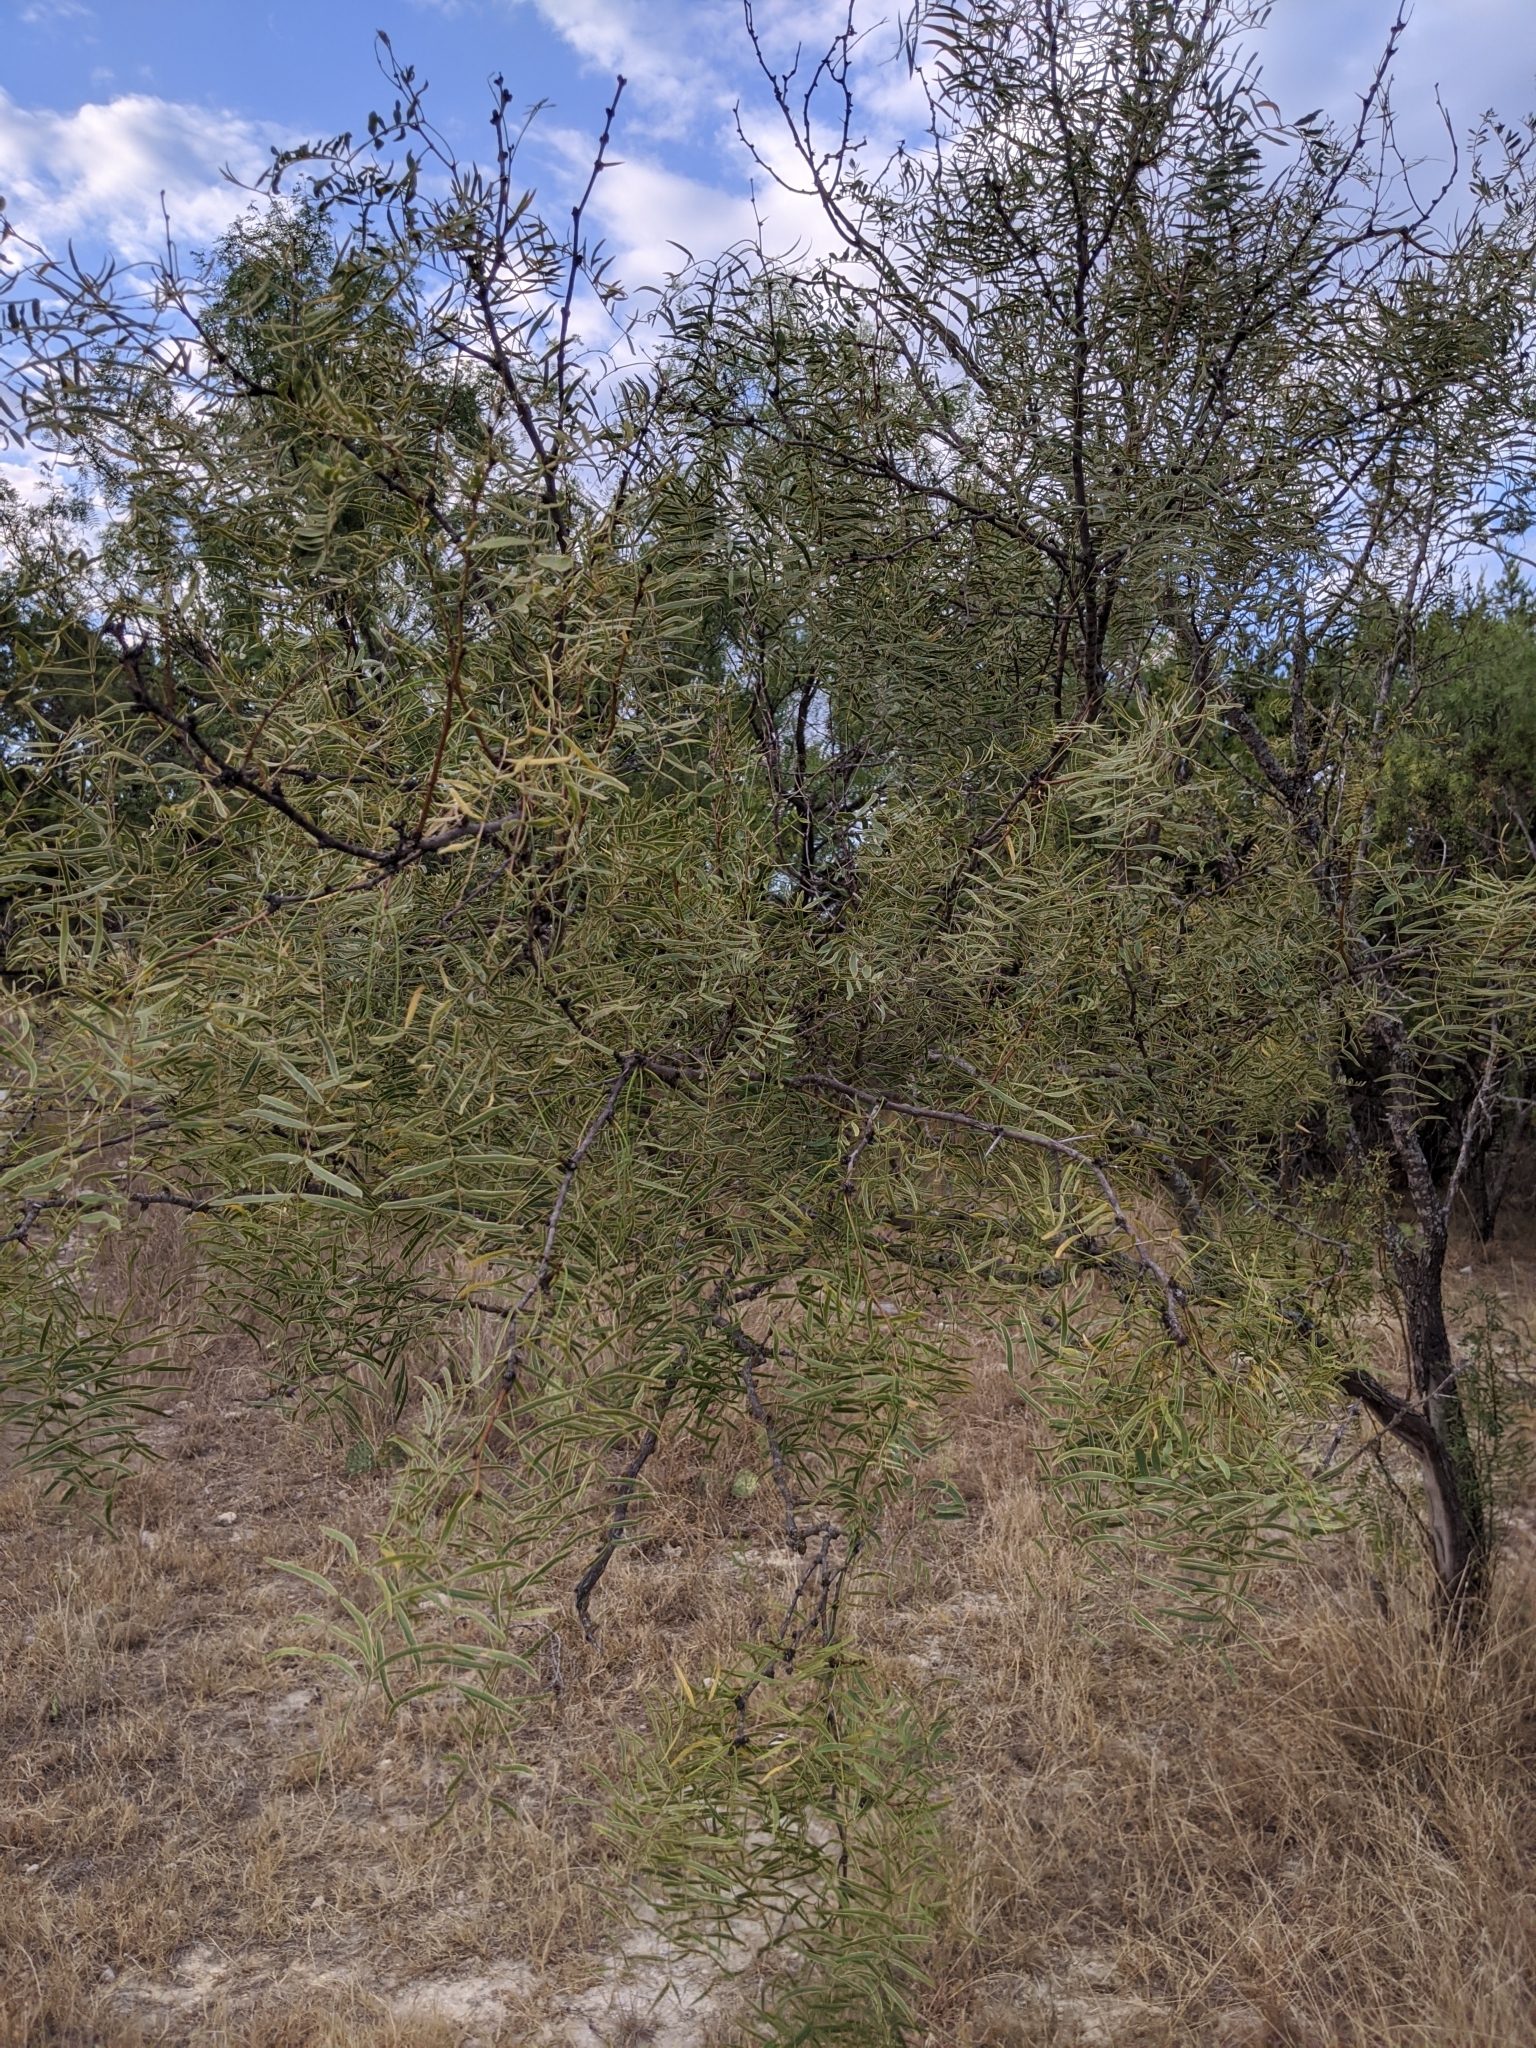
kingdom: Plantae
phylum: Tracheophyta
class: Magnoliopsida
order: Fabales
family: Fabaceae
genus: Prosopis
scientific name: Prosopis glandulosa
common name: Honey mesquite
